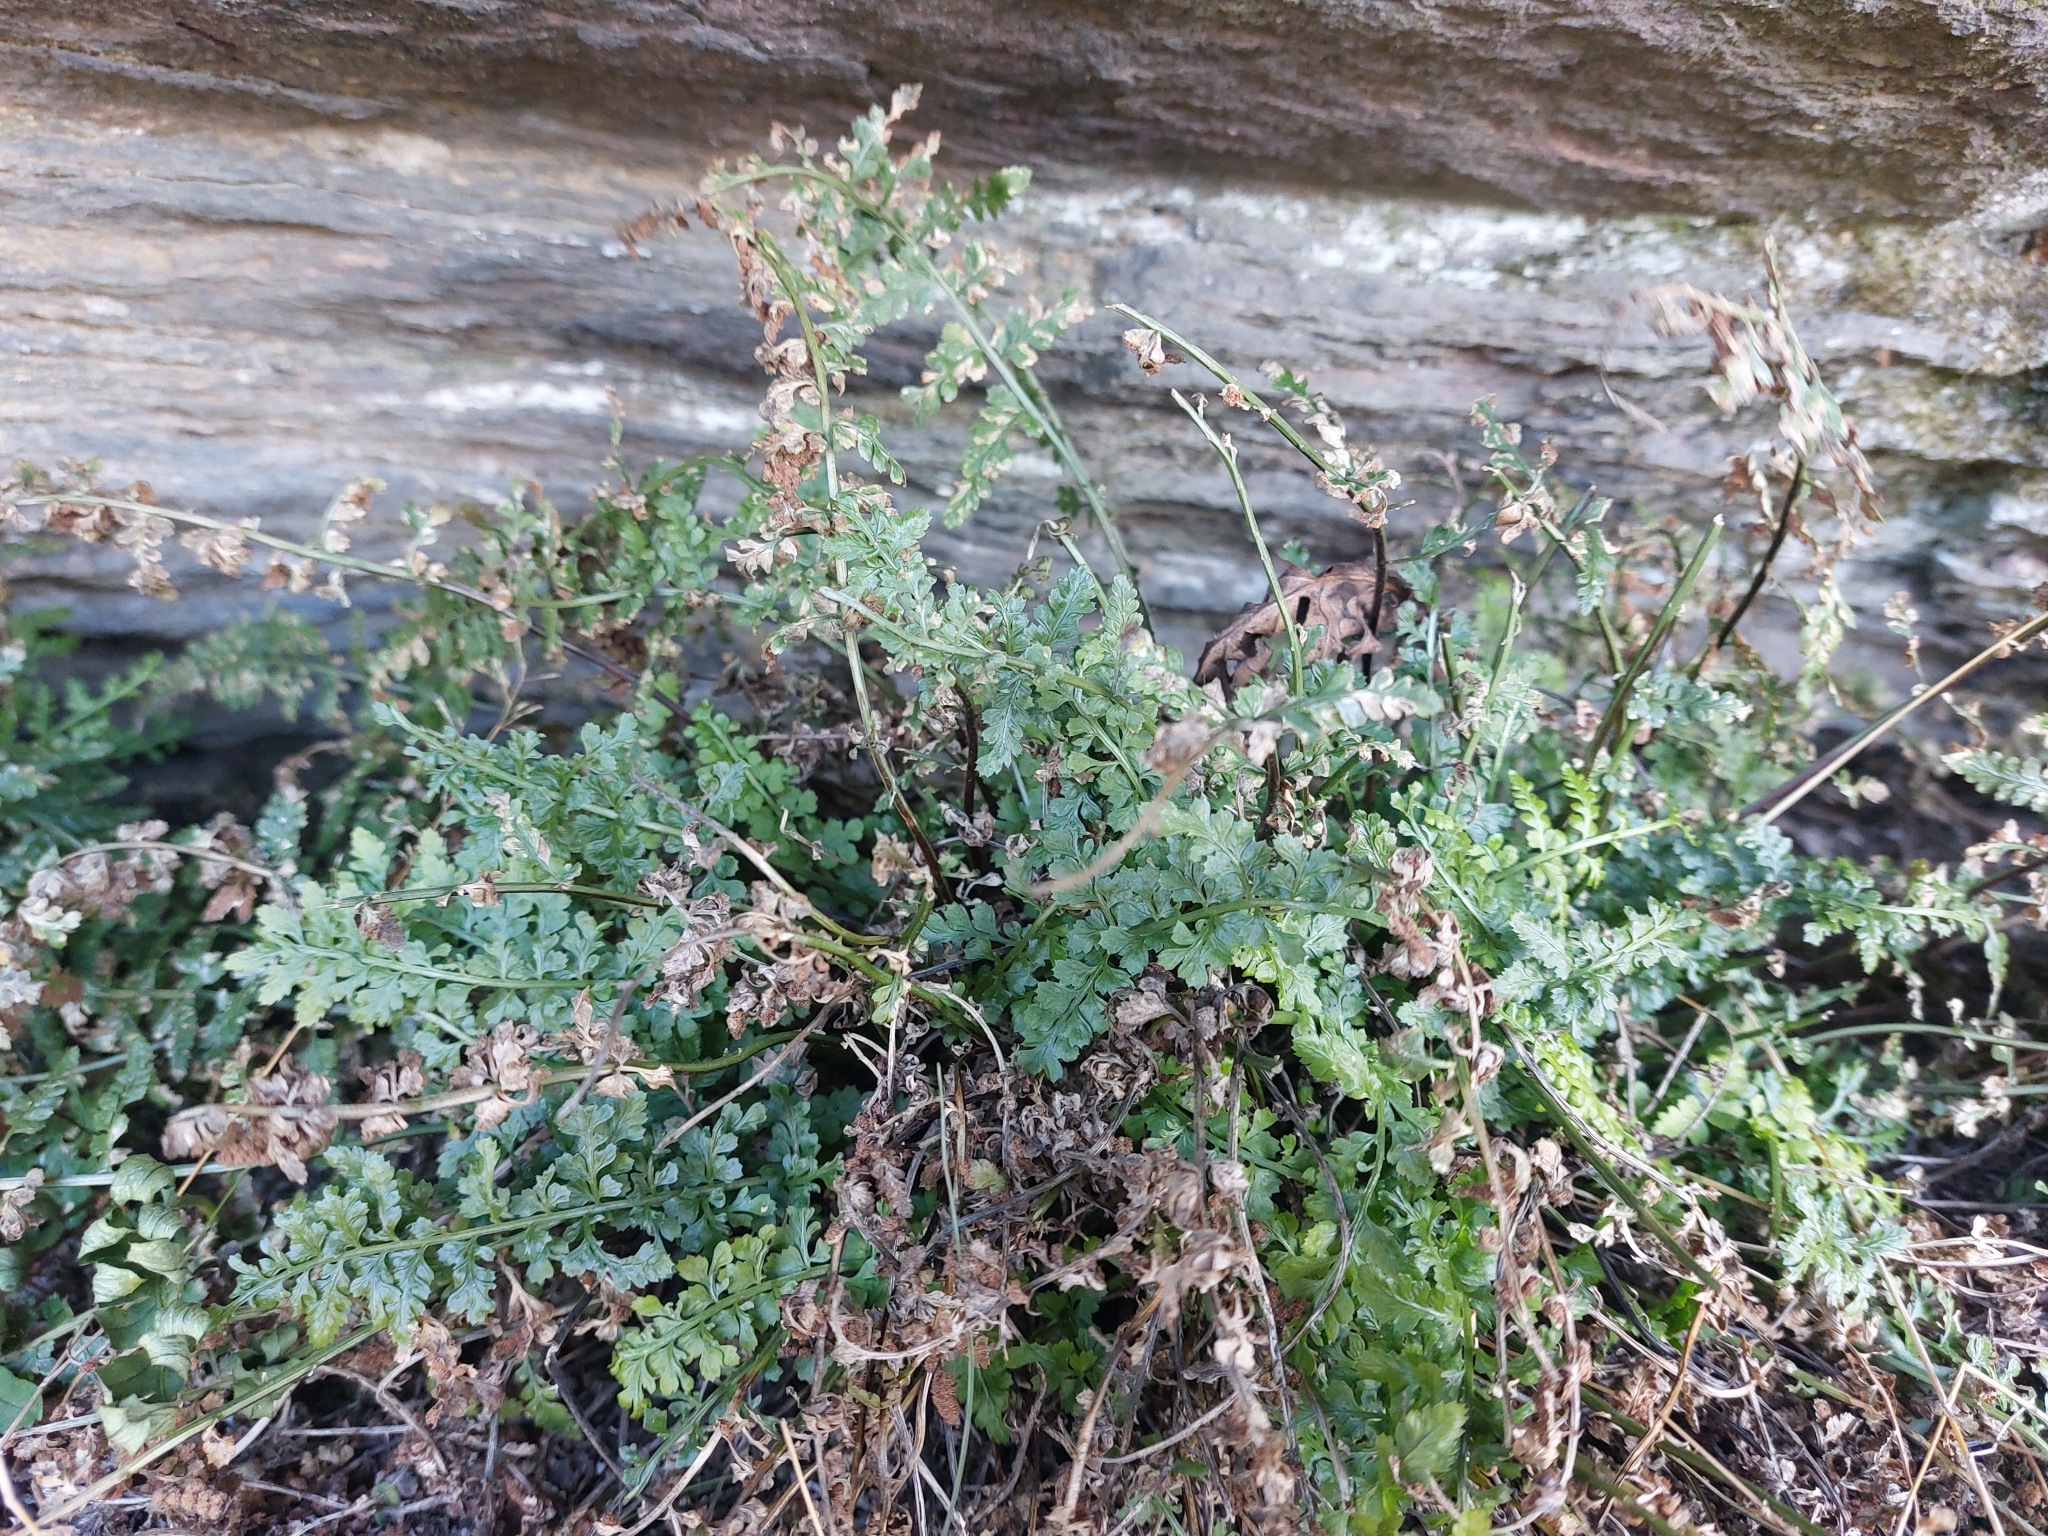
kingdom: Plantae
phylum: Tracheophyta
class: Polypodiopsida
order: Polypodiales
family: Aspleniaceae
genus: Asplenium
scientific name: Asplenium fontanum
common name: Fountain spleenwort
